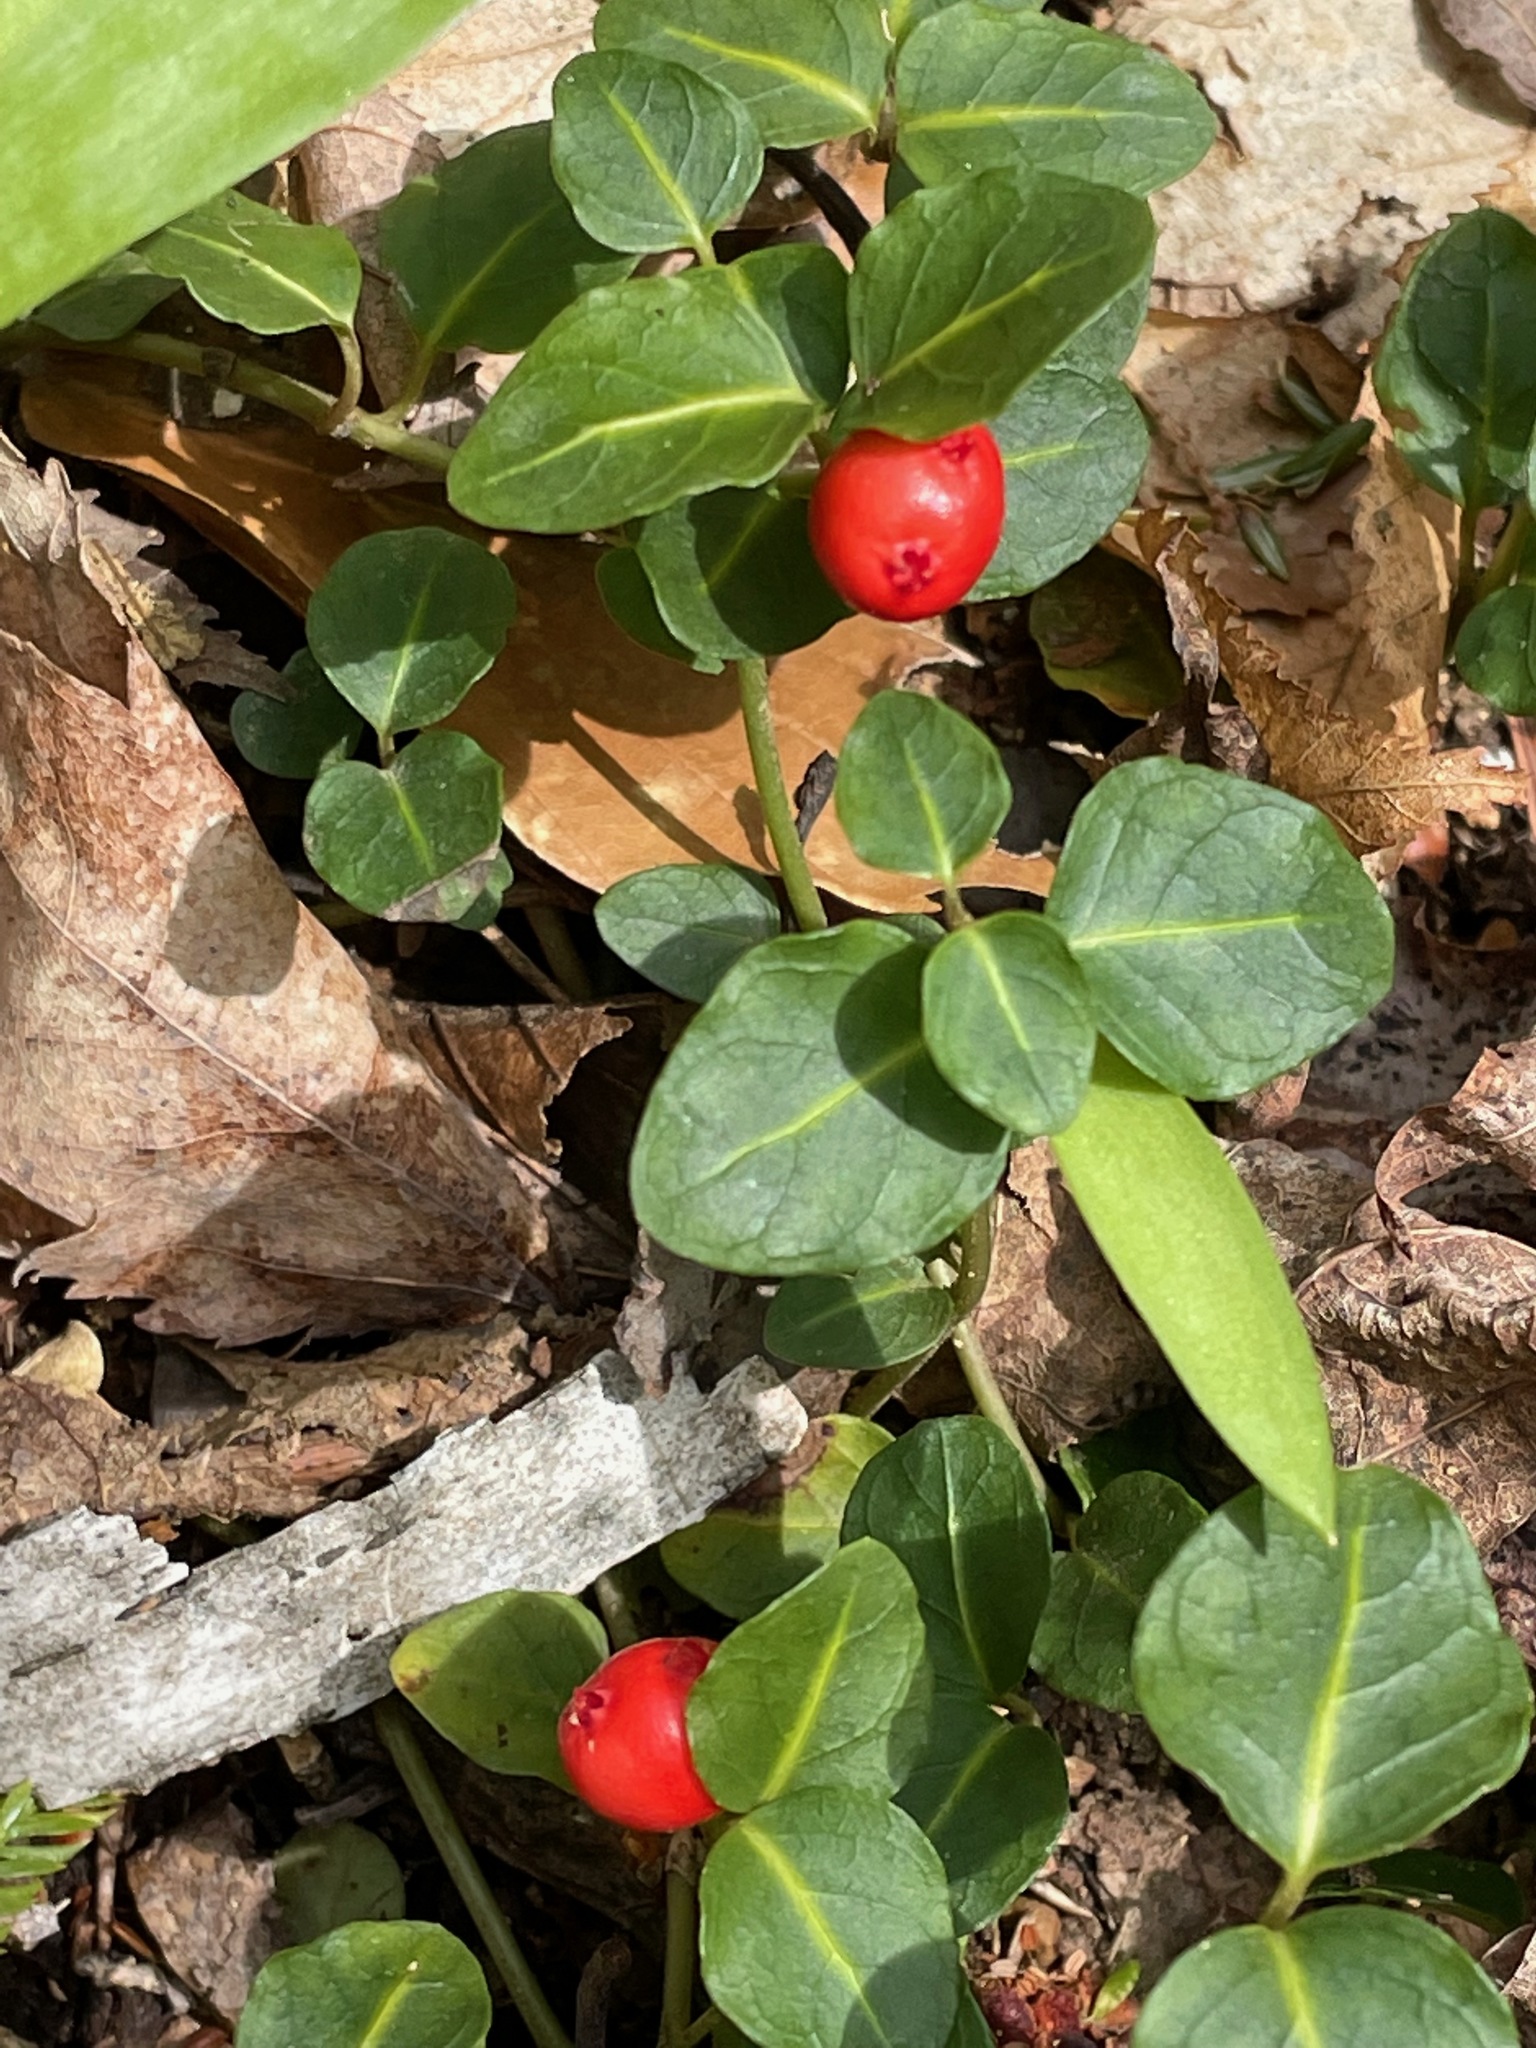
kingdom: Plantae
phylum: Tracheophyta
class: Magnoliopsida
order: Gentianales
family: Rubiaceae
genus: Mitchella
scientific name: Mitchella repens
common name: Partridge-berry
